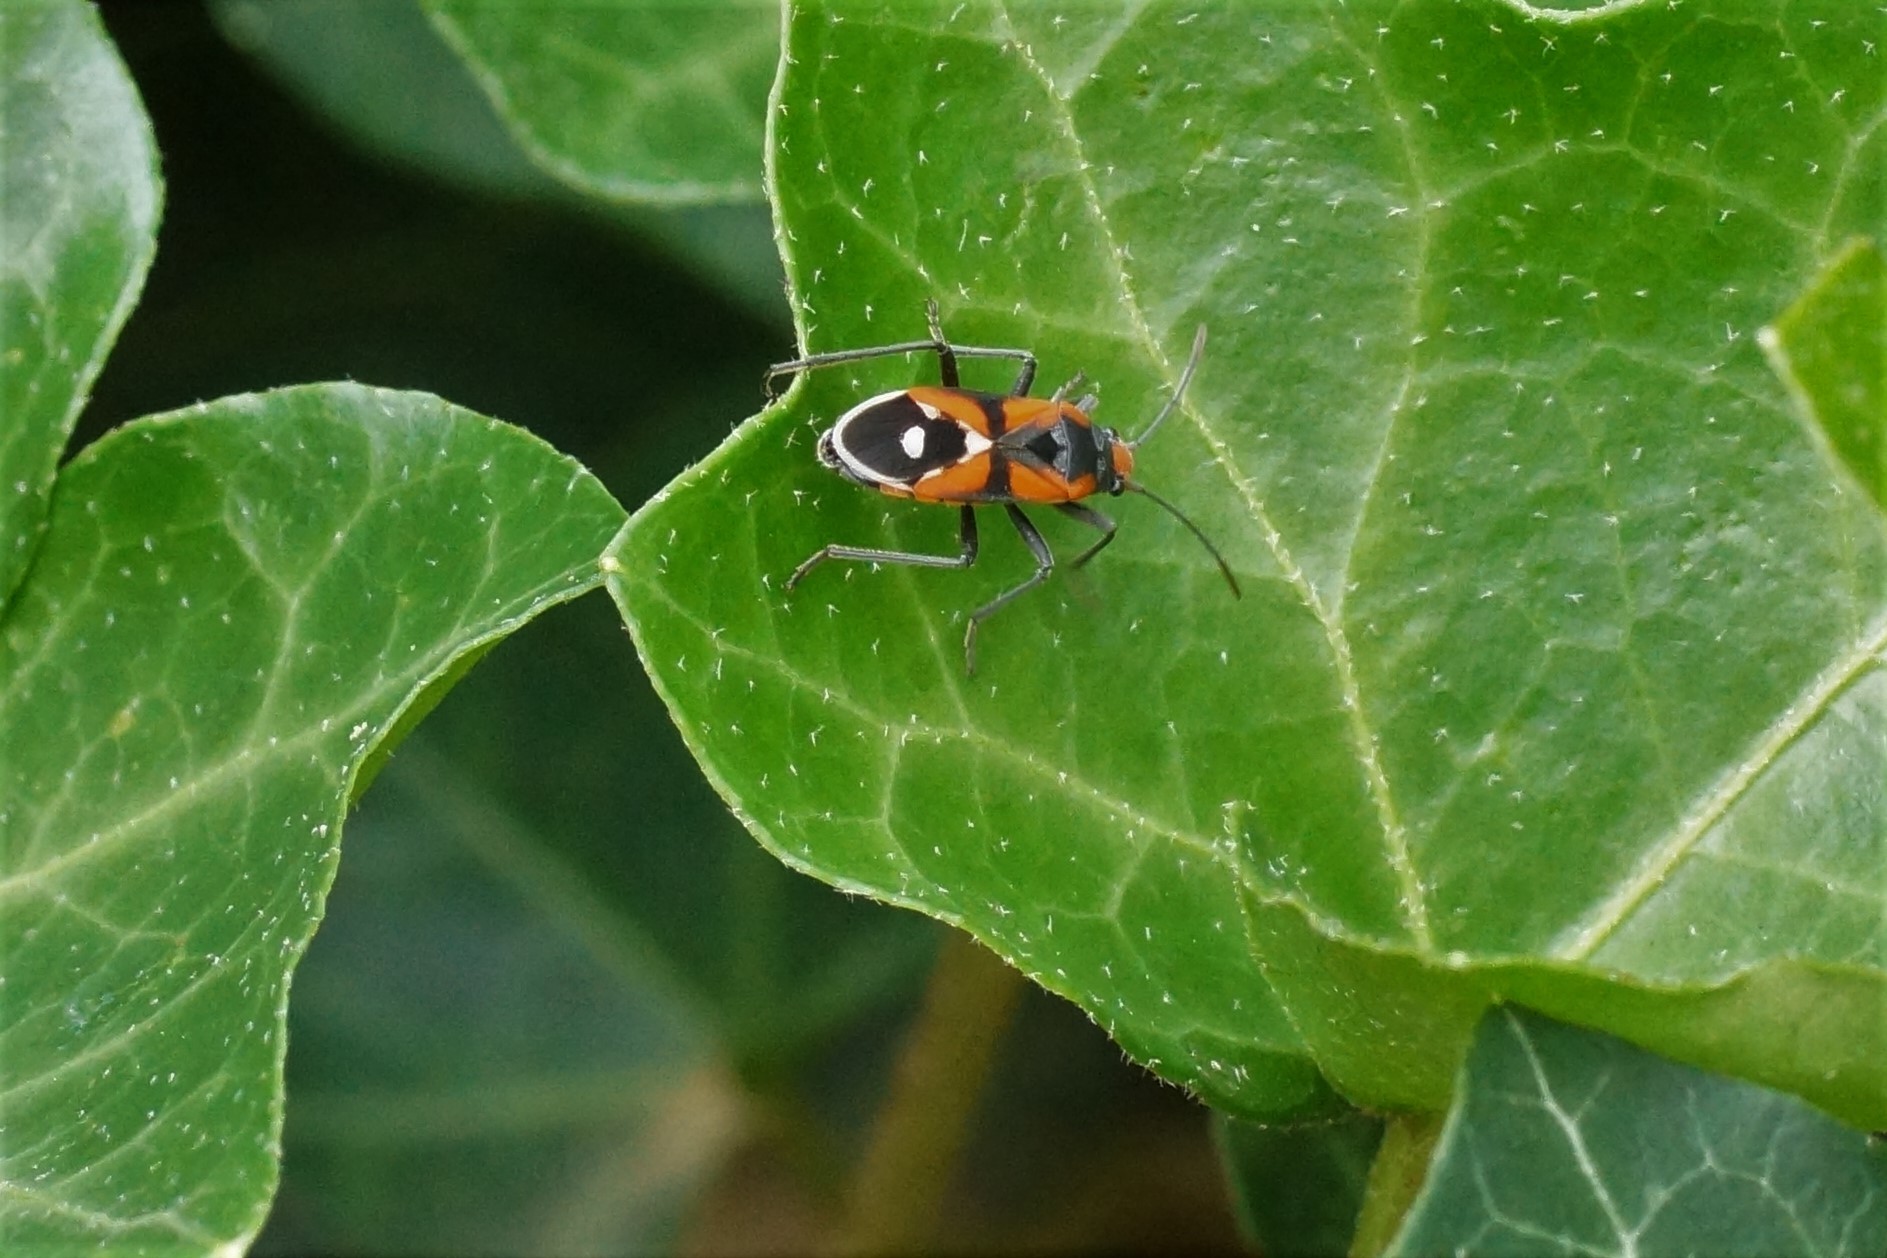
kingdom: Animalia
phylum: Arthropoda
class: Insecta
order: Hemiptera
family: Lygaeidae
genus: Melanerythrus
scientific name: Melanerythrus mactans
